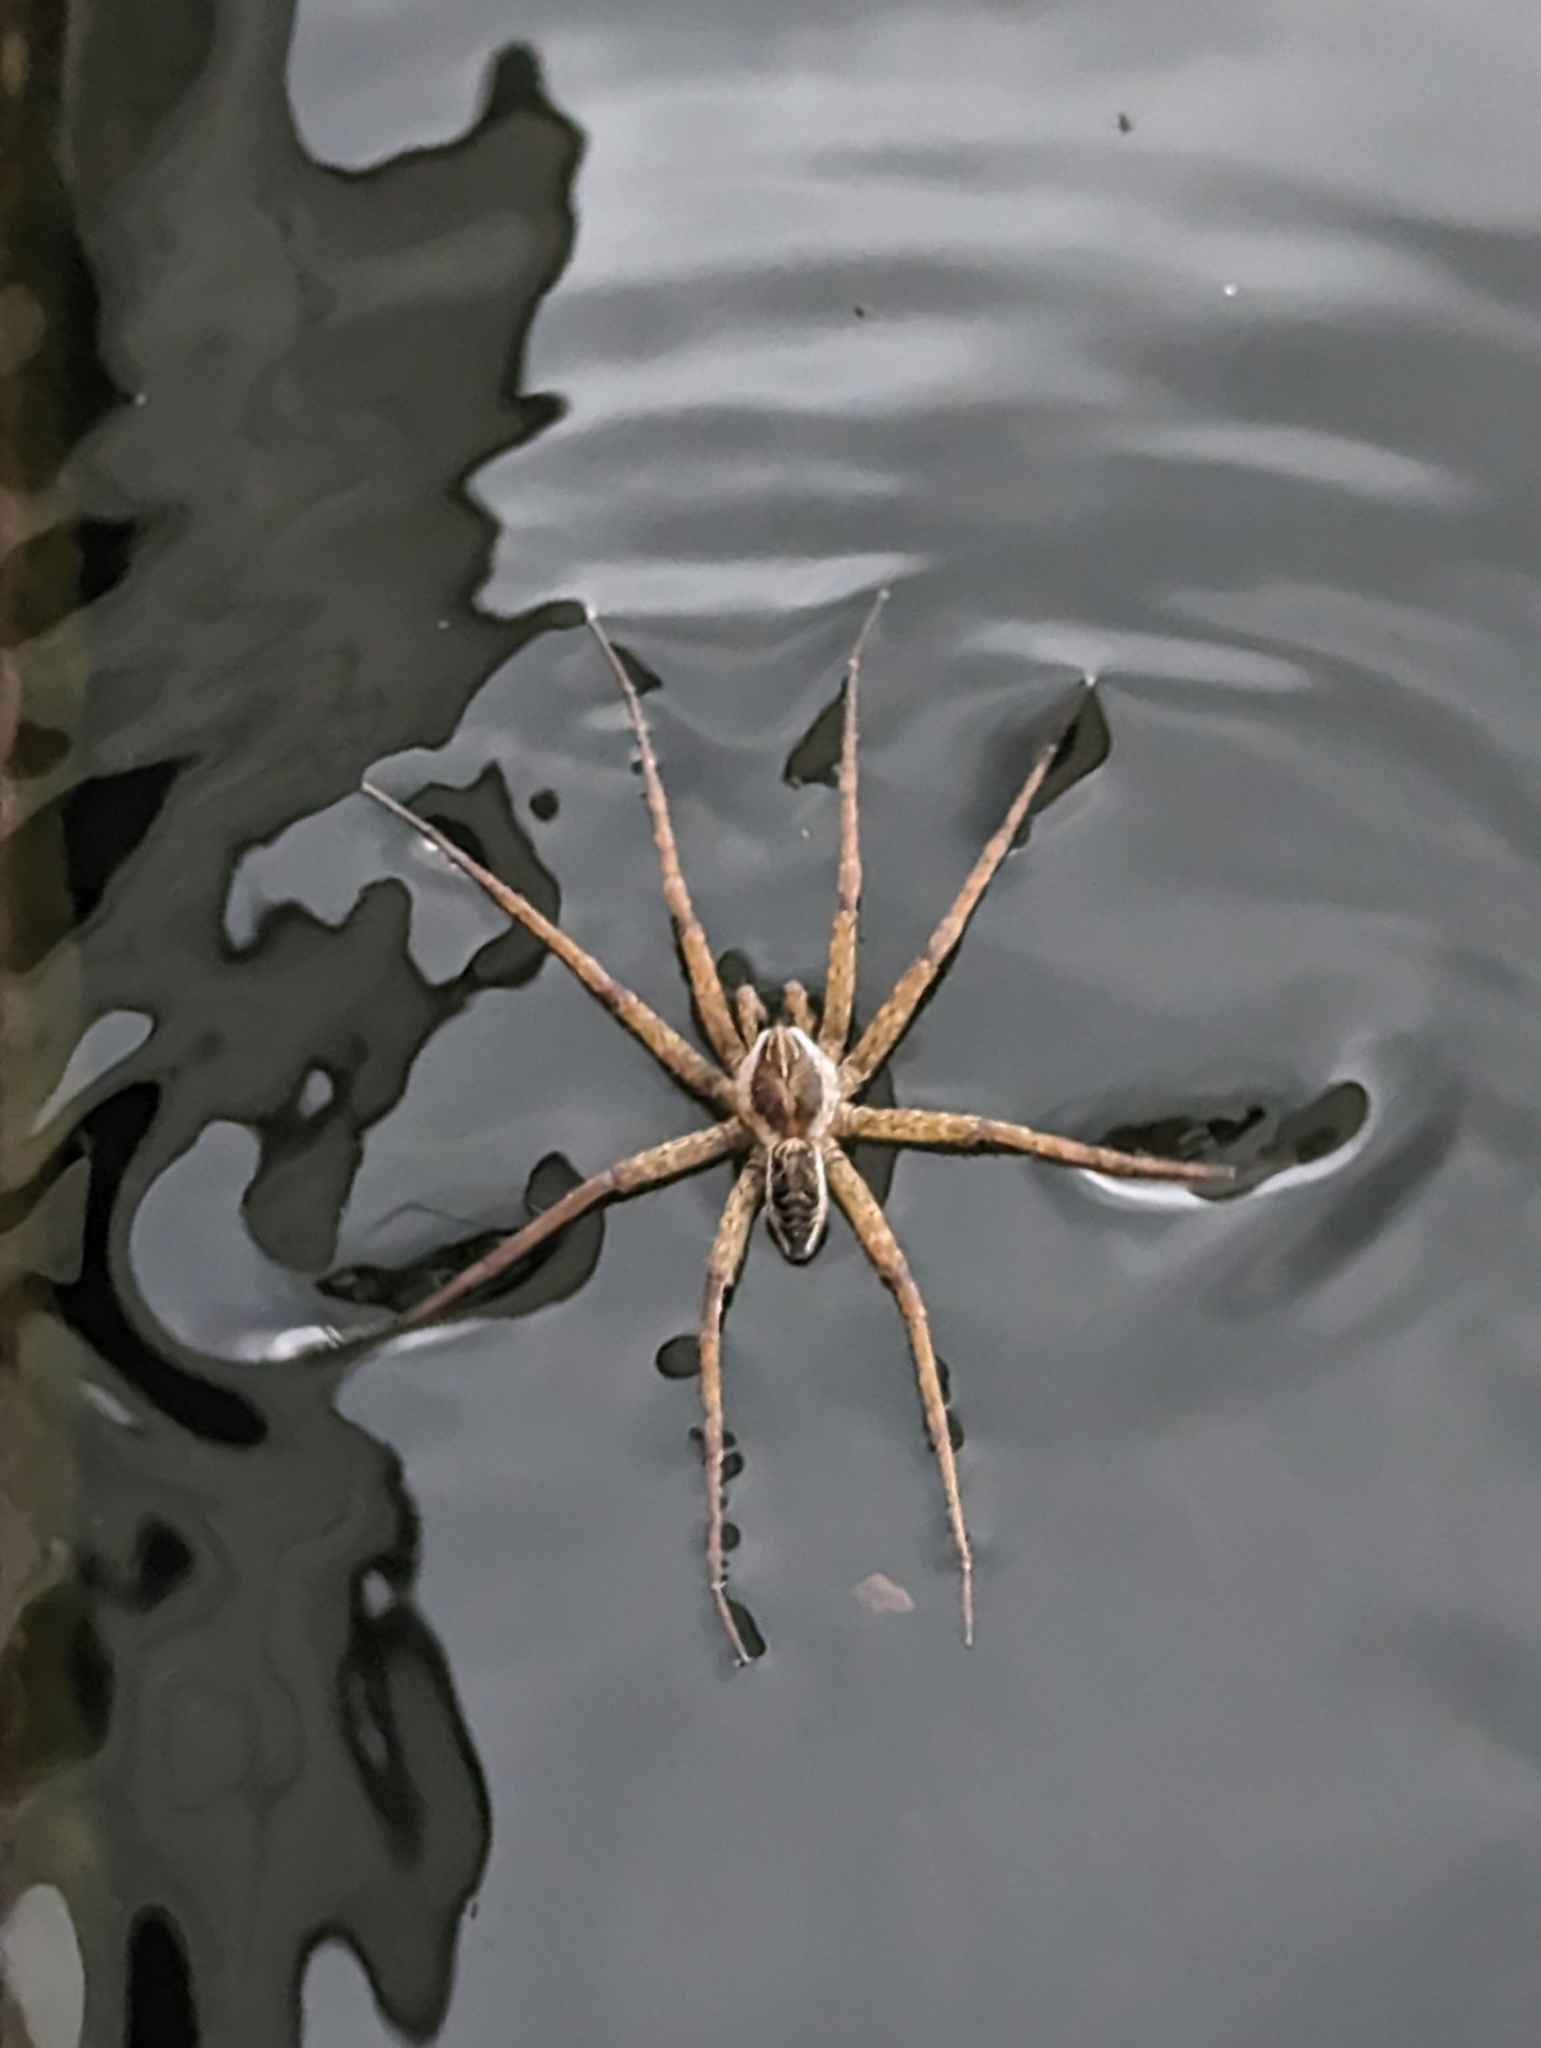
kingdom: Animalia
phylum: Arthropoda
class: Arachnida
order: Araneae
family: Pisauridae
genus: Dolomedes
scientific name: Dolomedes scriptus
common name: Striped fishing spider
